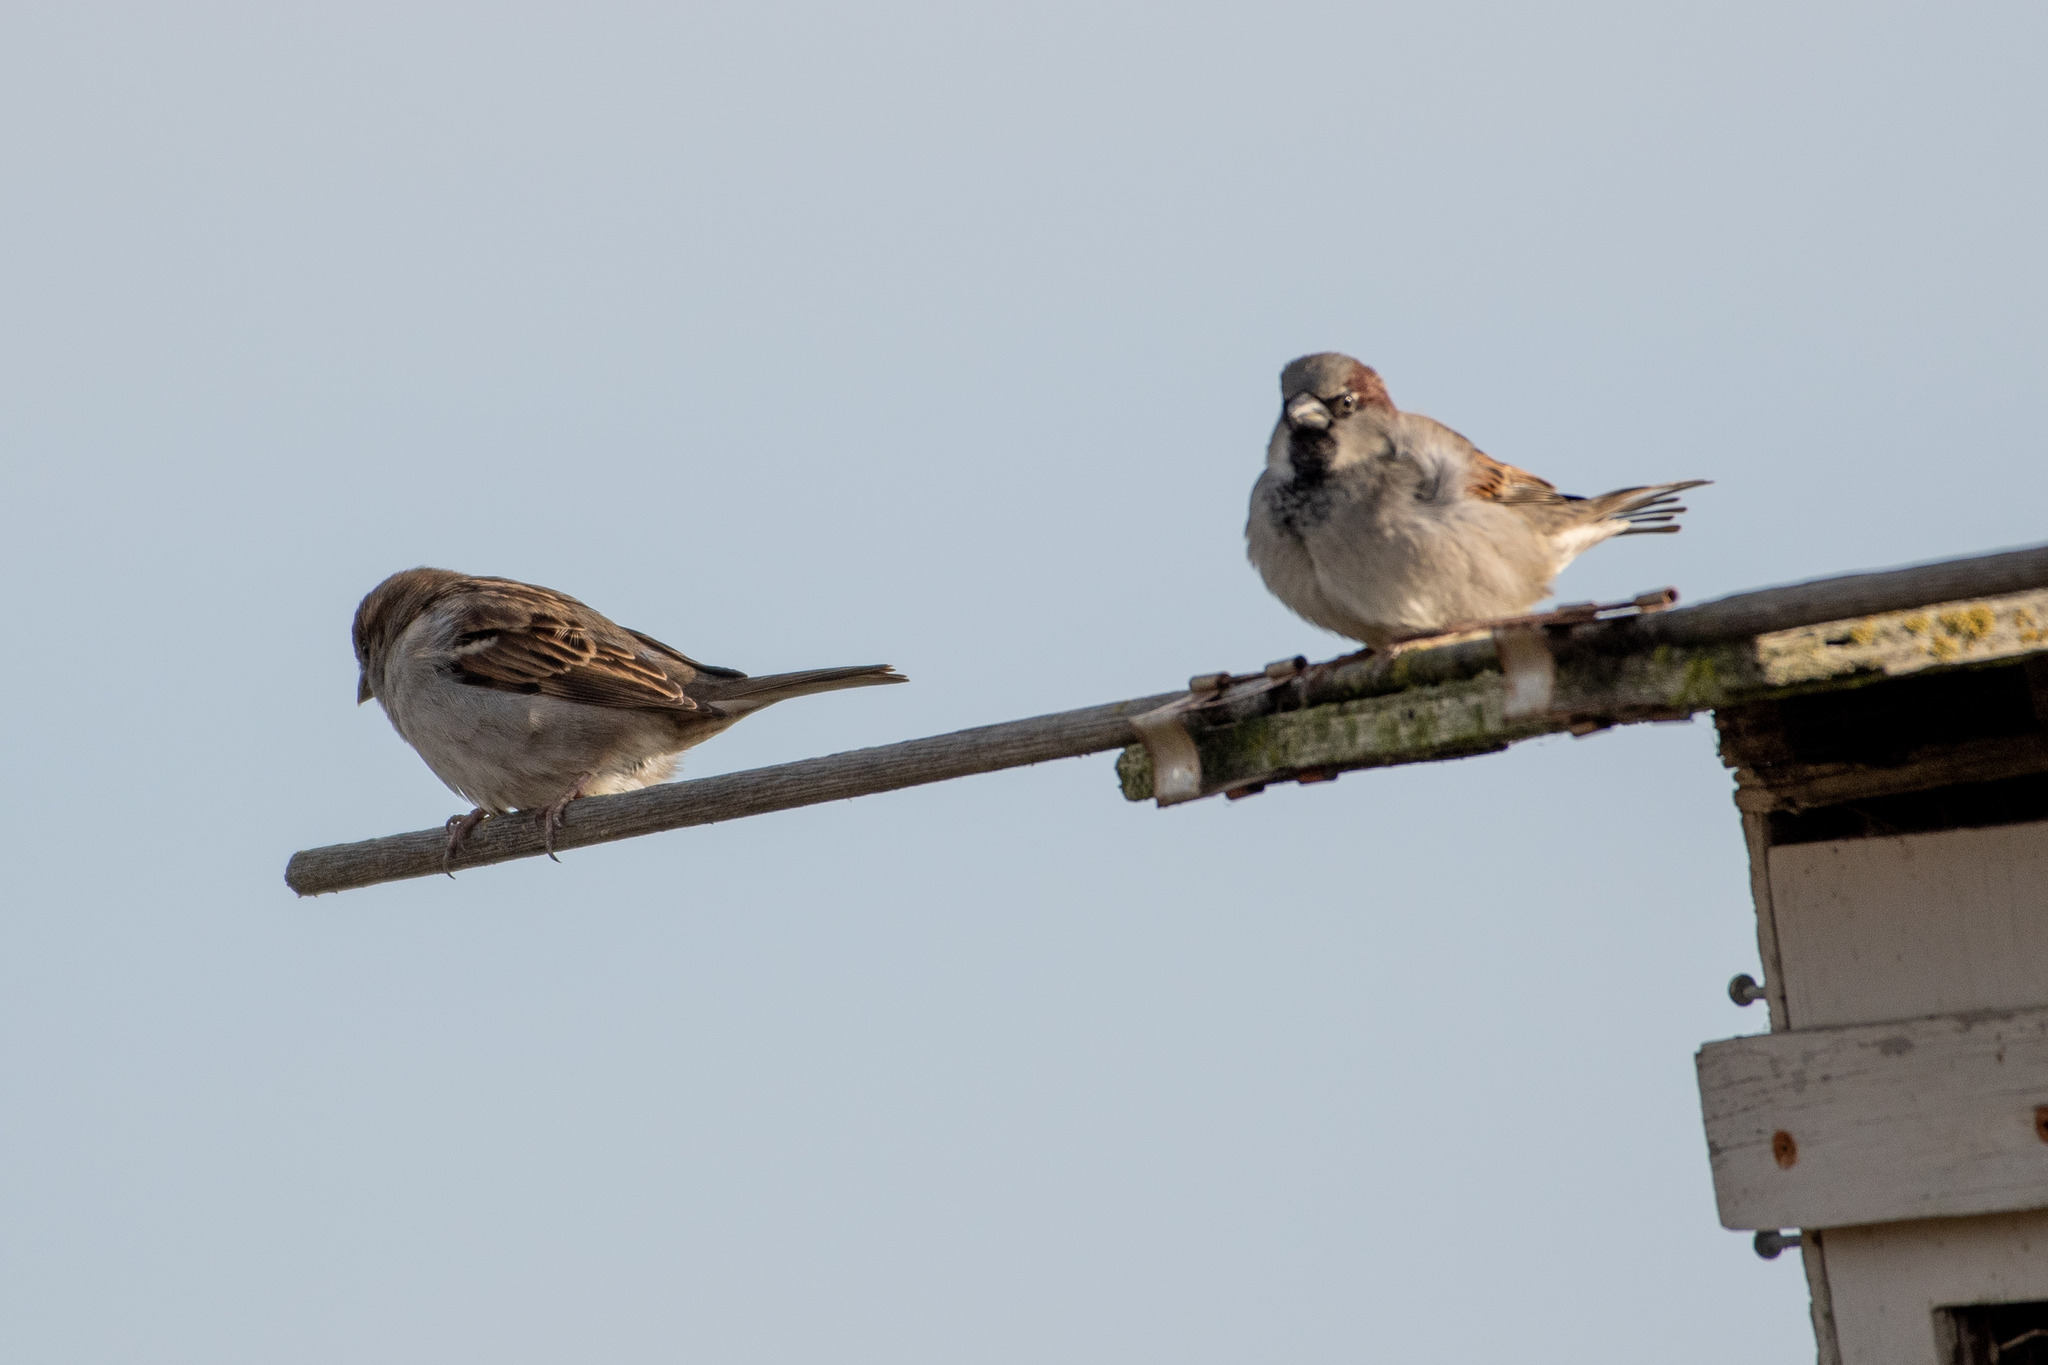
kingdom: Animalia
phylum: Chordata
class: Aves
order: Passeriformes
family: Passeridae
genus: Passer
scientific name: Passer domesticus
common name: House sparrow
